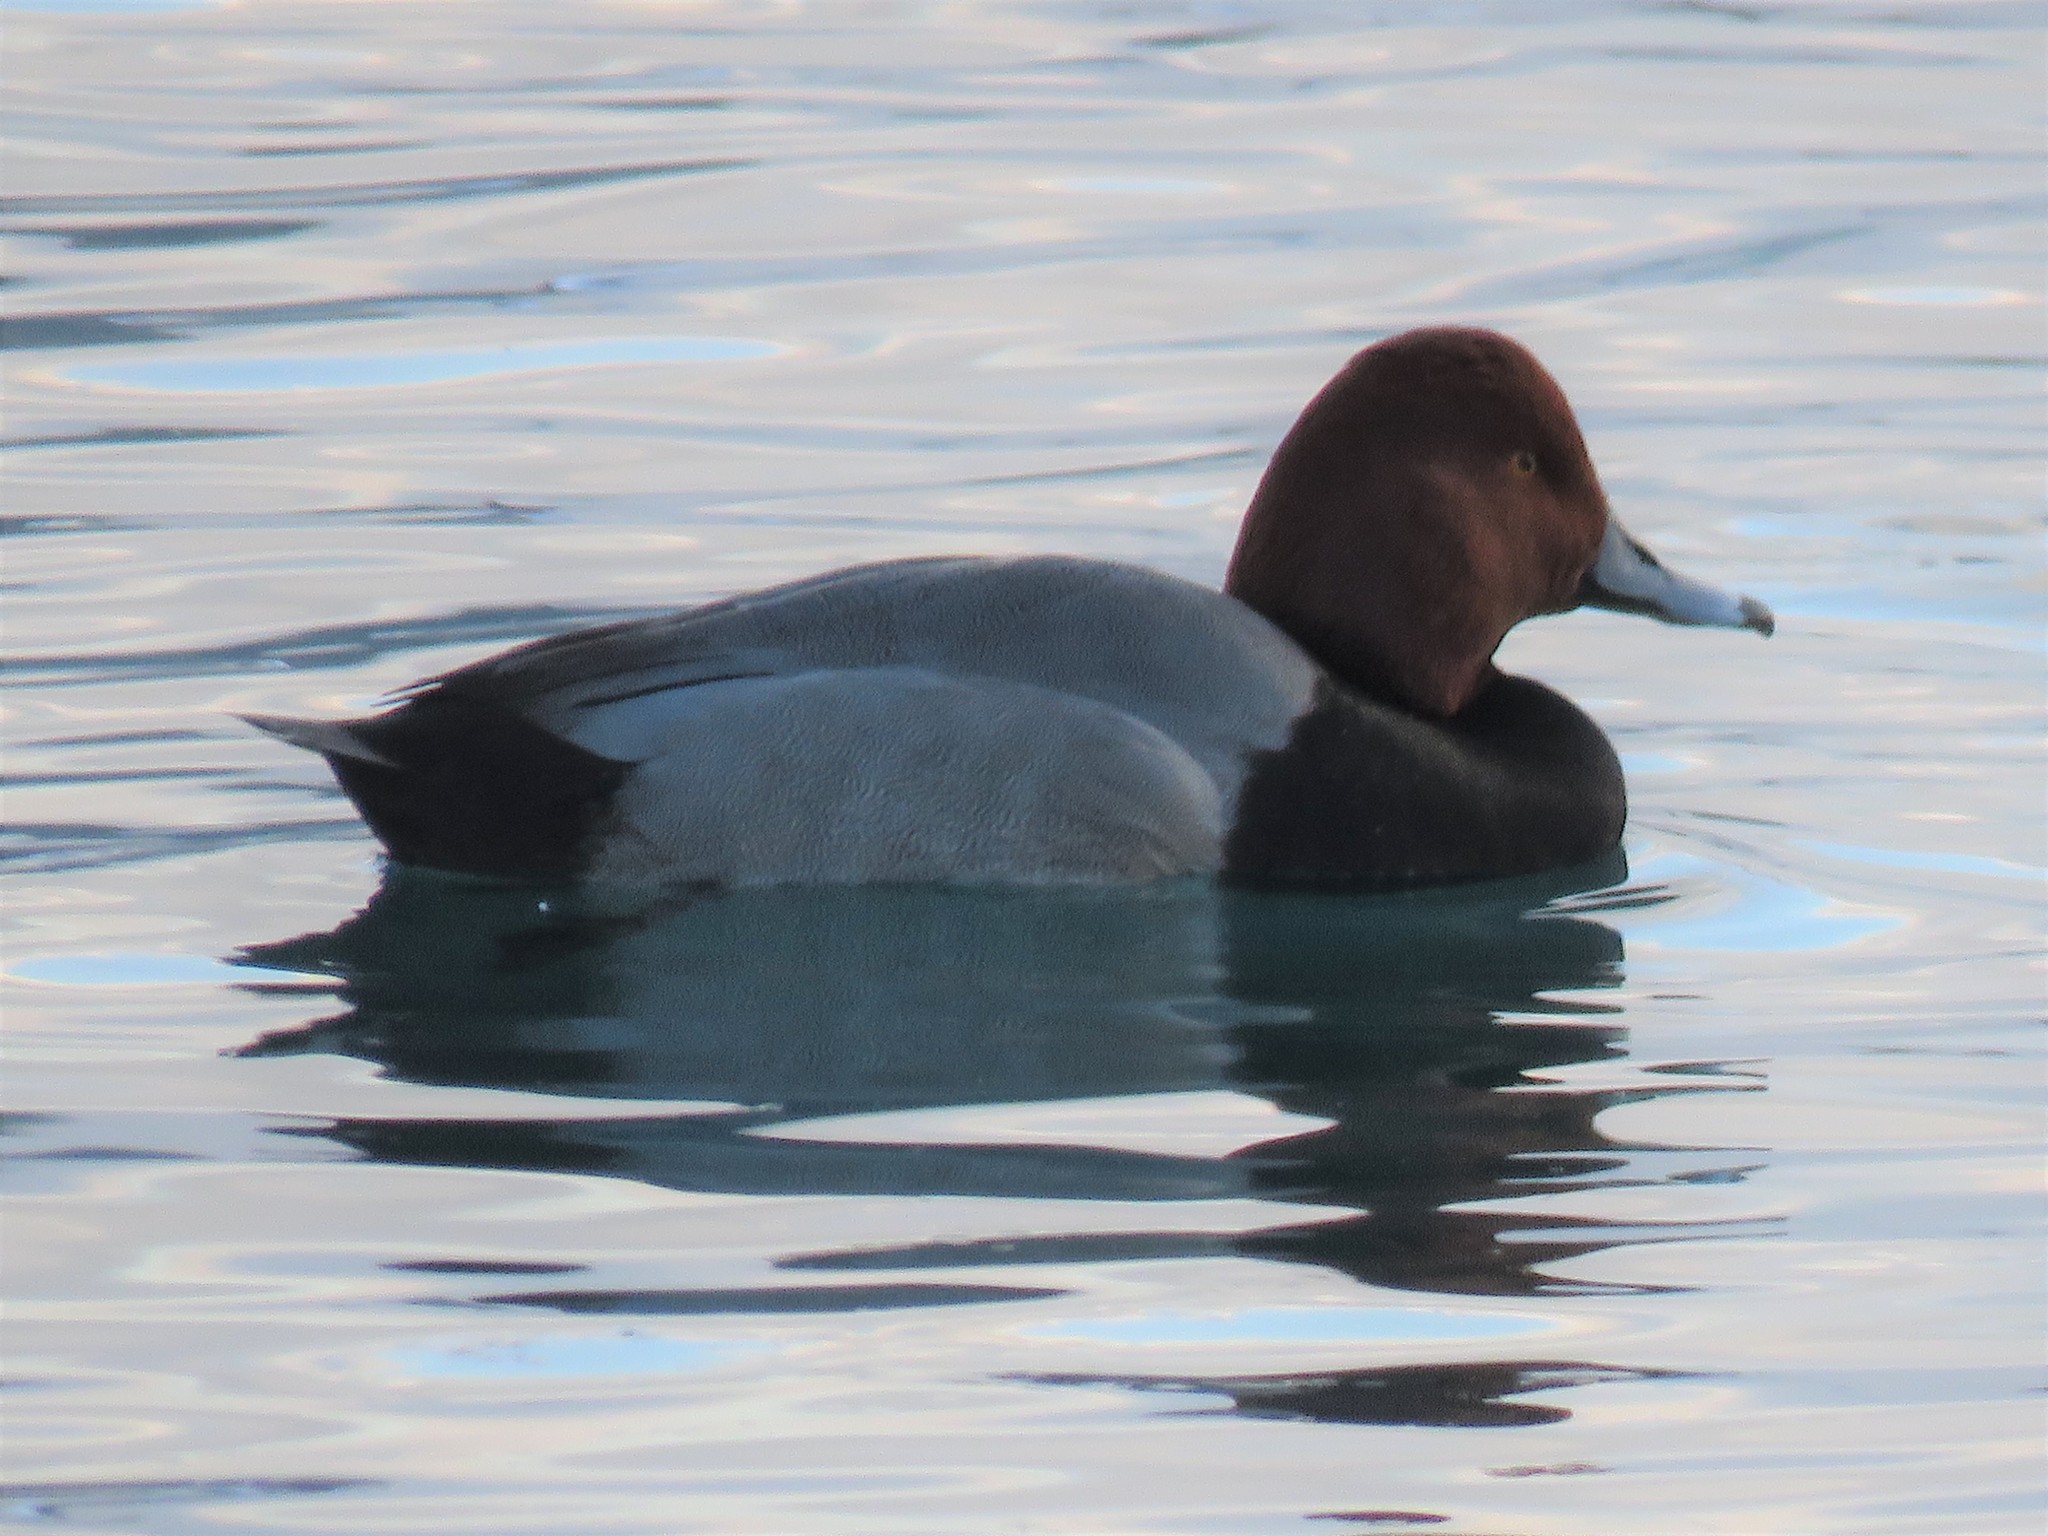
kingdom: Animalia
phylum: Chordata
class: Aves
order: Anseriformes
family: Anatidae
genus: Aythya
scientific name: Aythya americana
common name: Redhead
